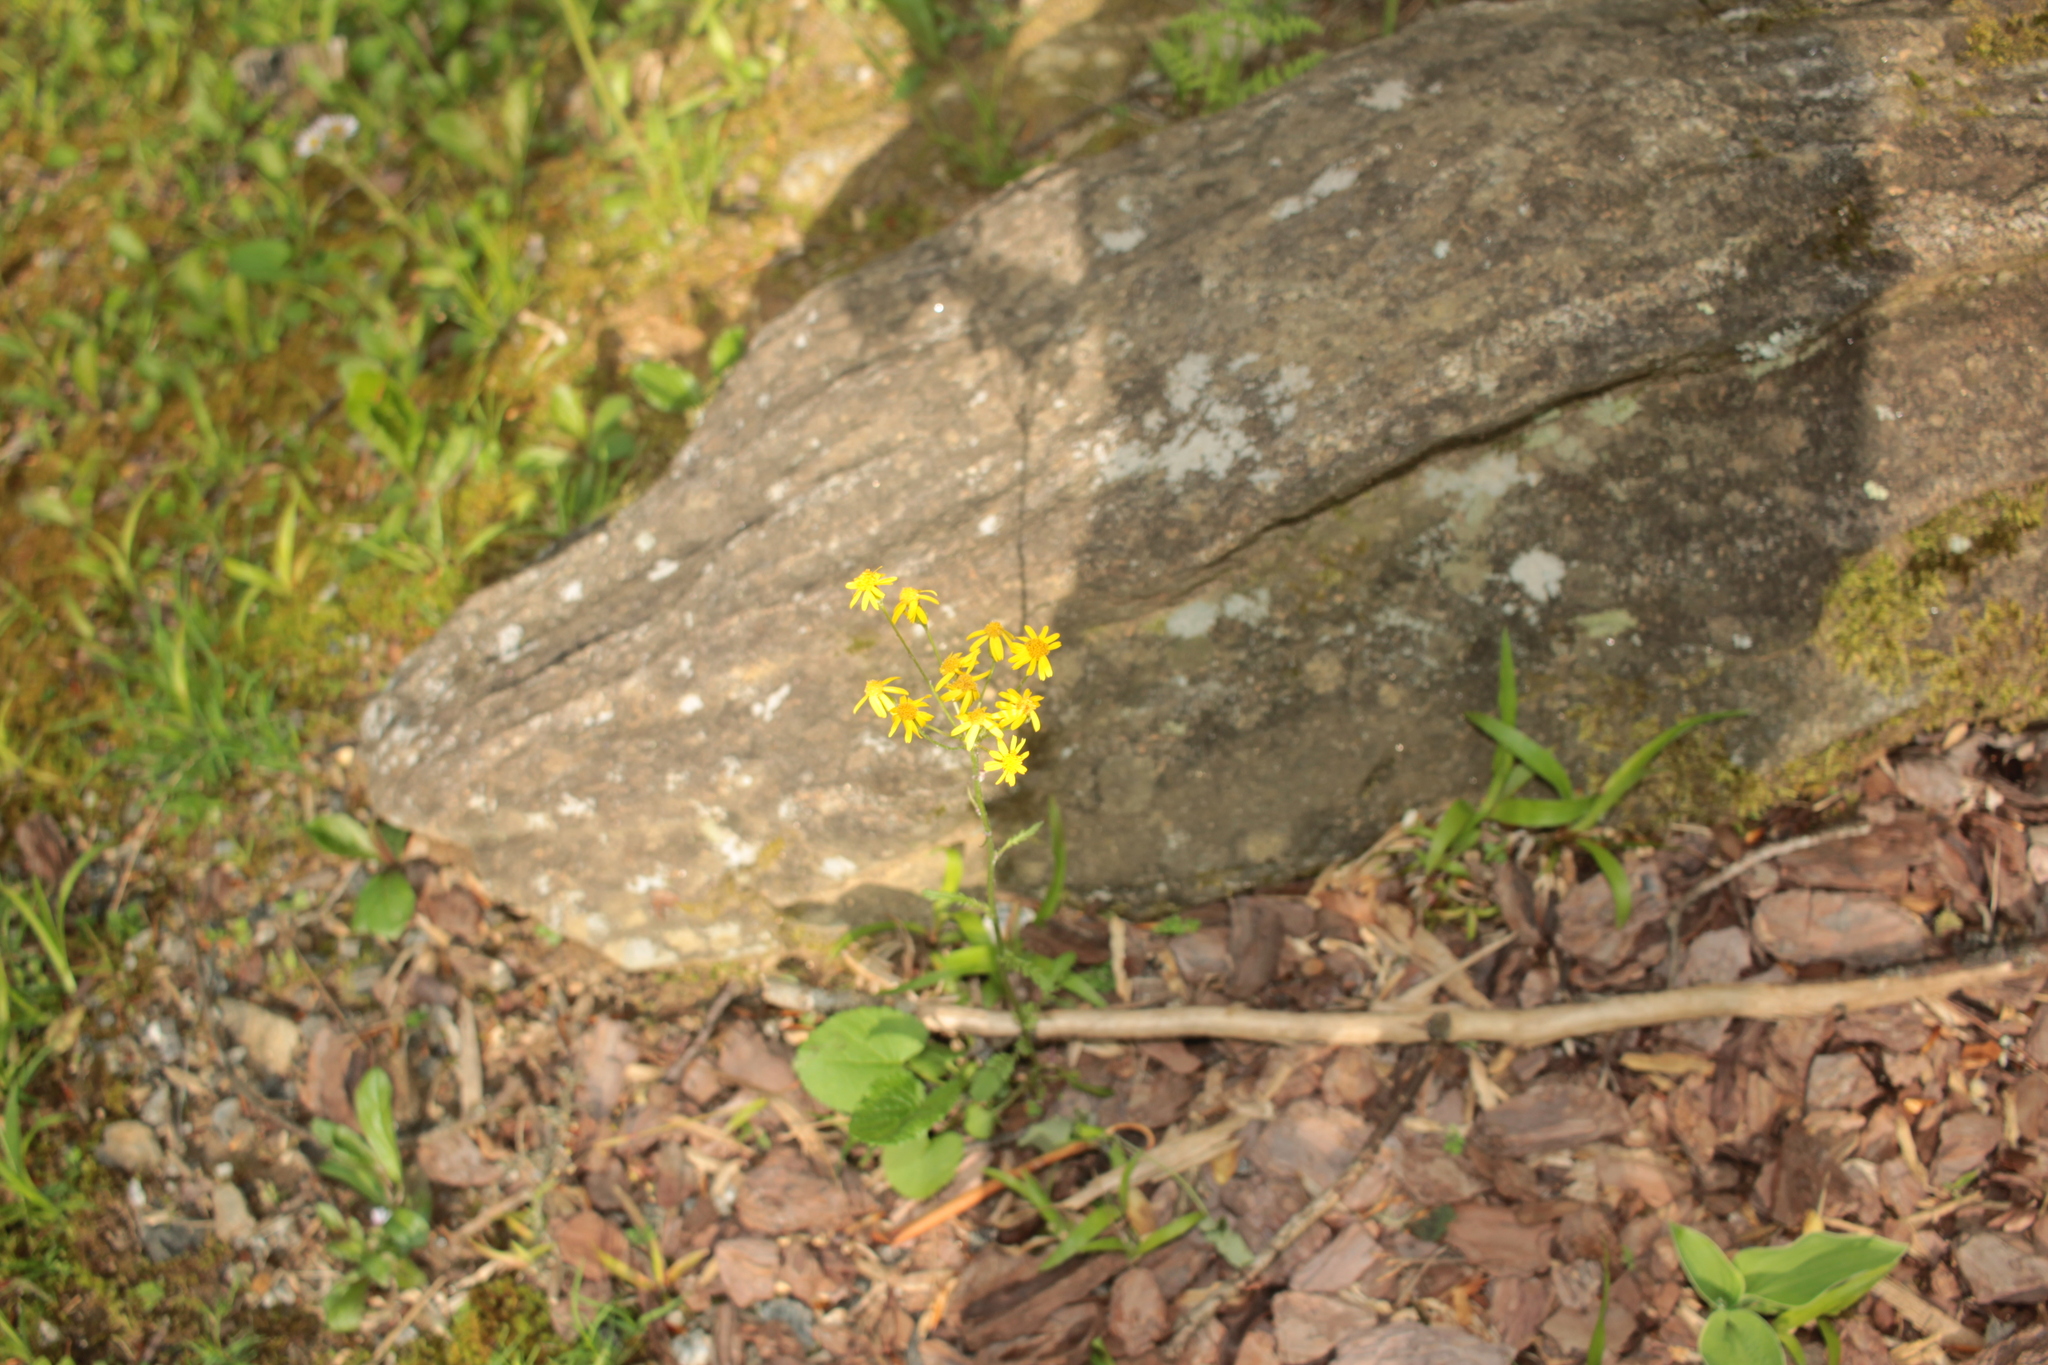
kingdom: Plantae
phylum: Tracheophyta
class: Magnoliopsida
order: Asterales
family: Asteraceae
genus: Packera
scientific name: Packera aurea
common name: Golden groundsel
